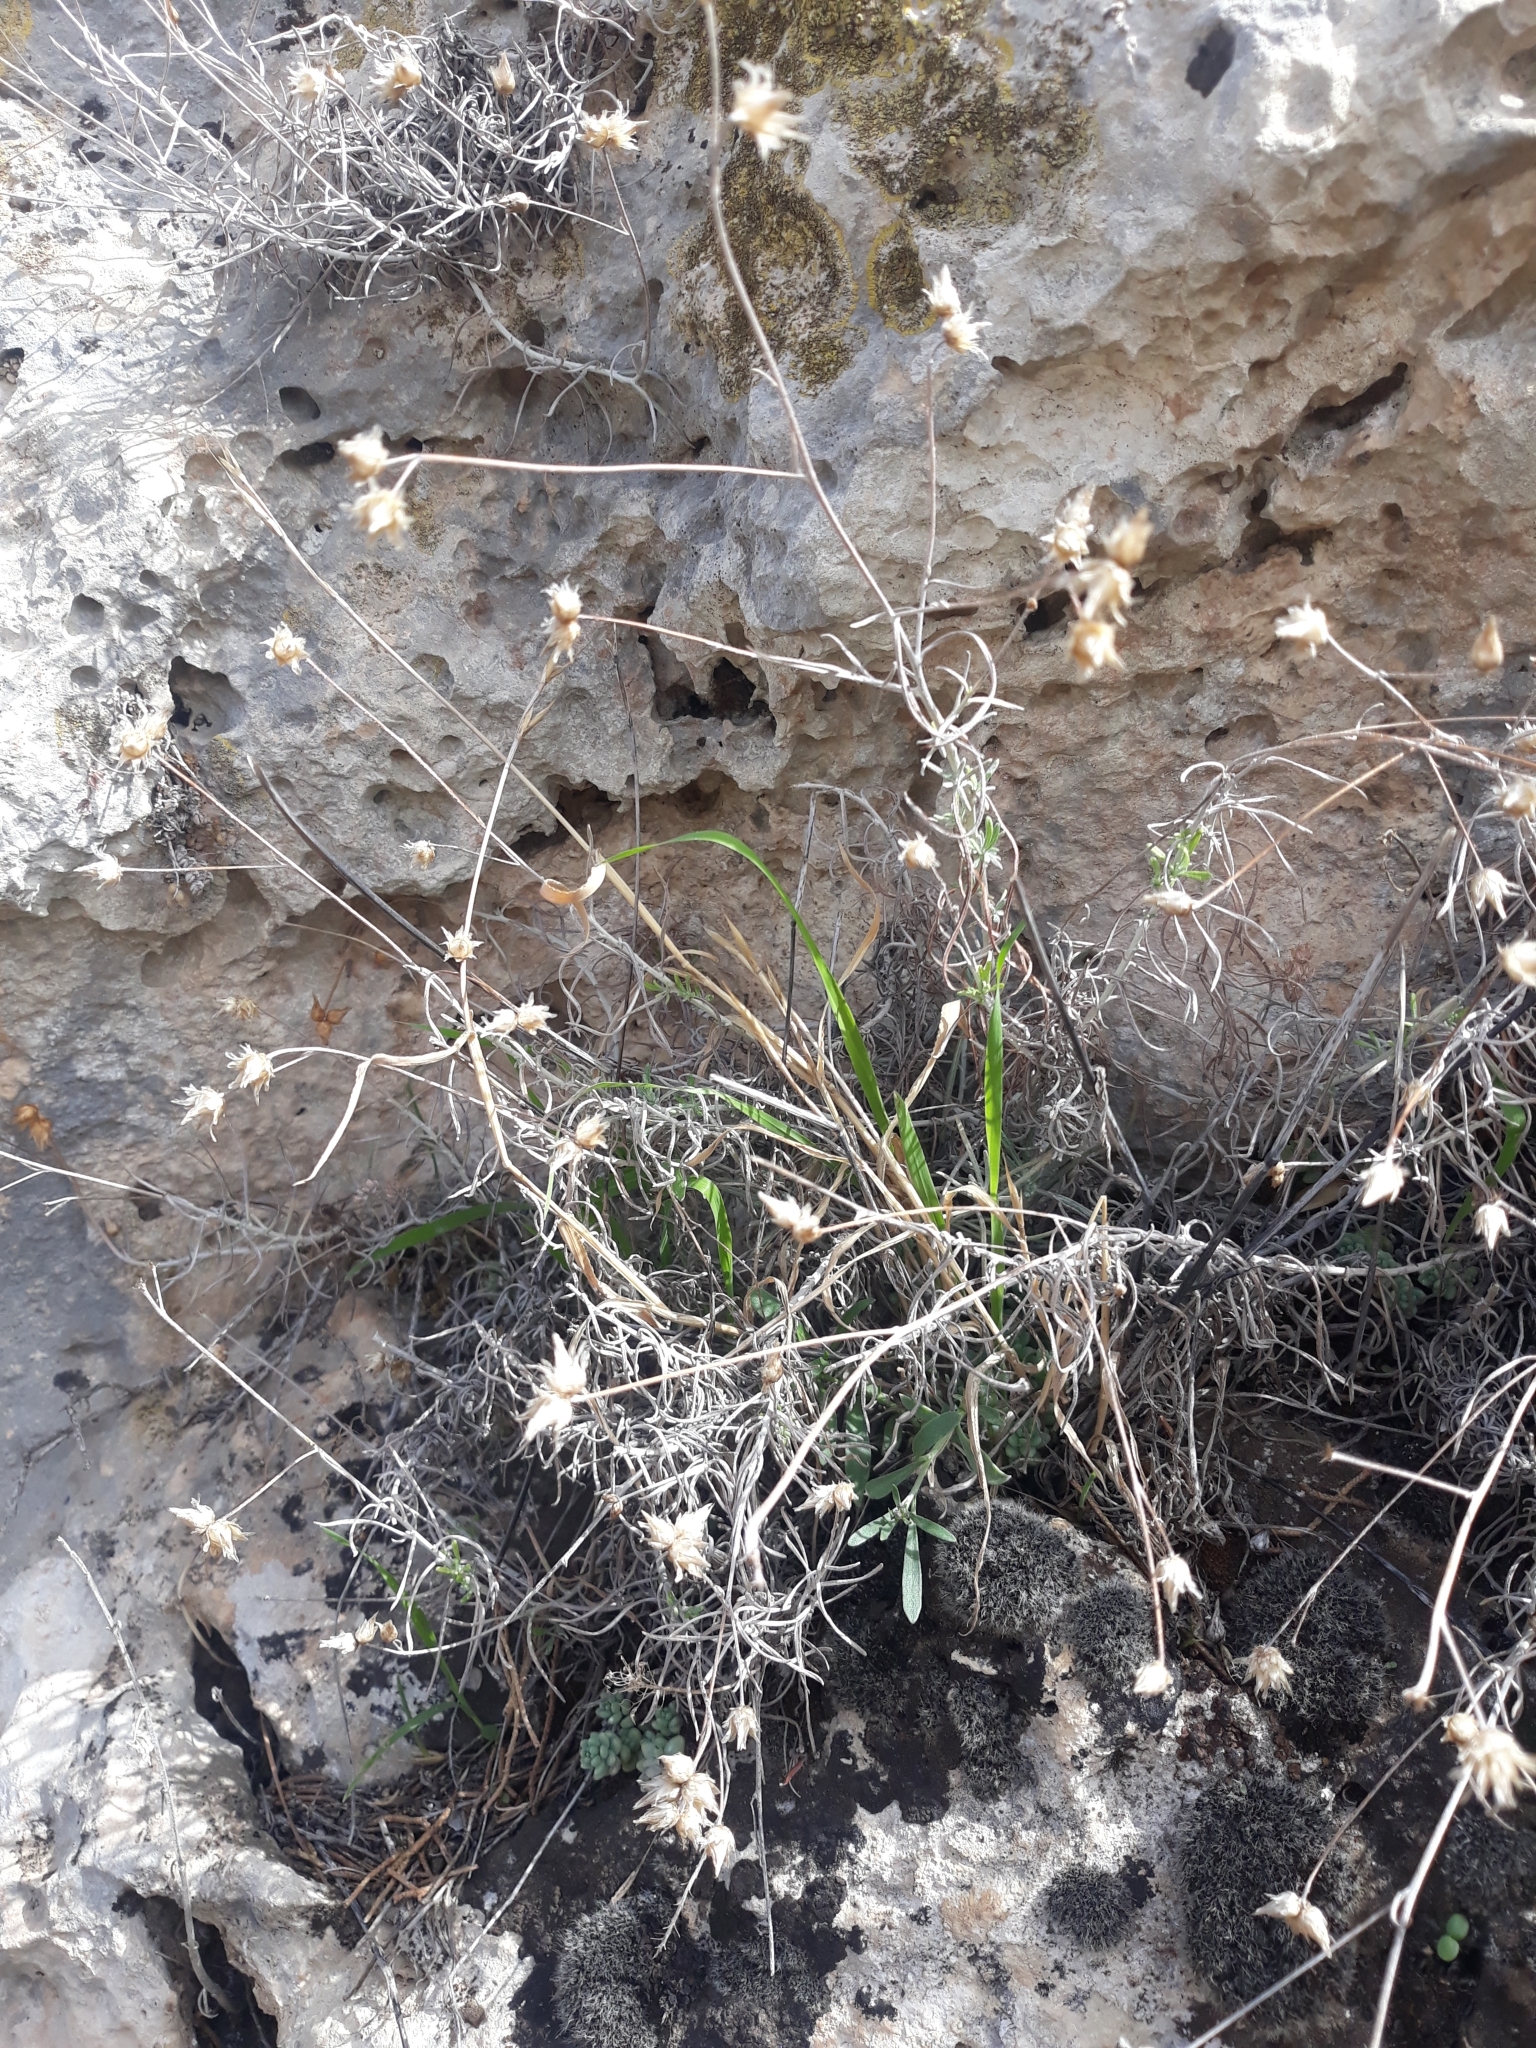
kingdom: Plantae
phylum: Tracheophyta
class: Magnoliopsida
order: Asterales
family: Asteraceae
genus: Phagnalon
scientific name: Phagnalon sordidum
